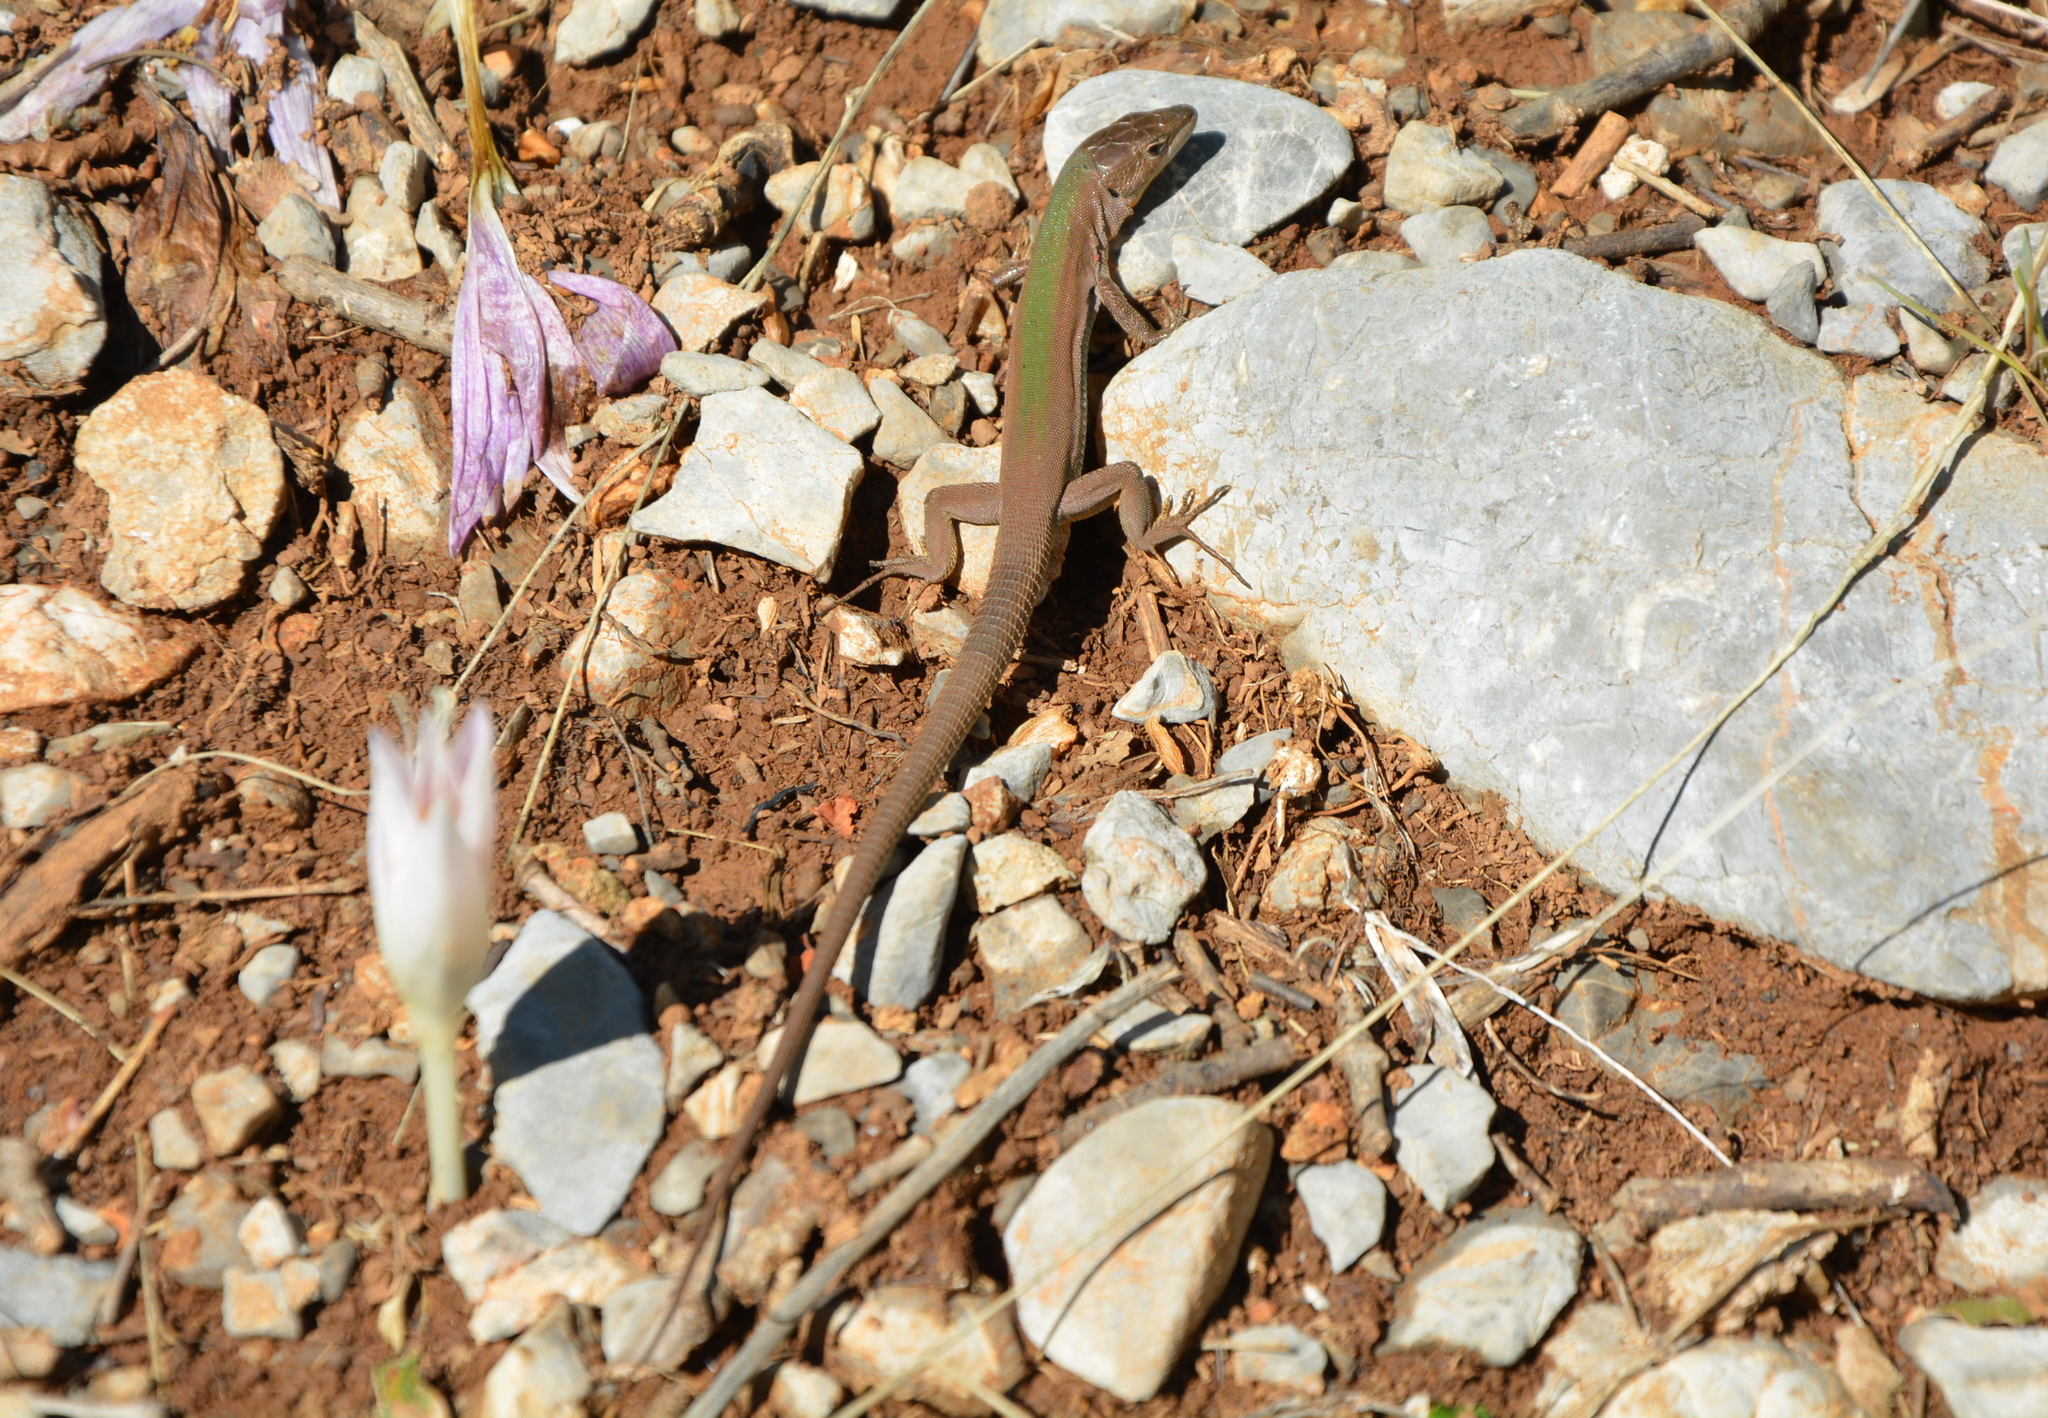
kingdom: Animalia
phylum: Chordata
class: Squamata
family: Lacertidae
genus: Podarcis
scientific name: Podarcis melisellensis
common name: Dalmatian wall lizard
